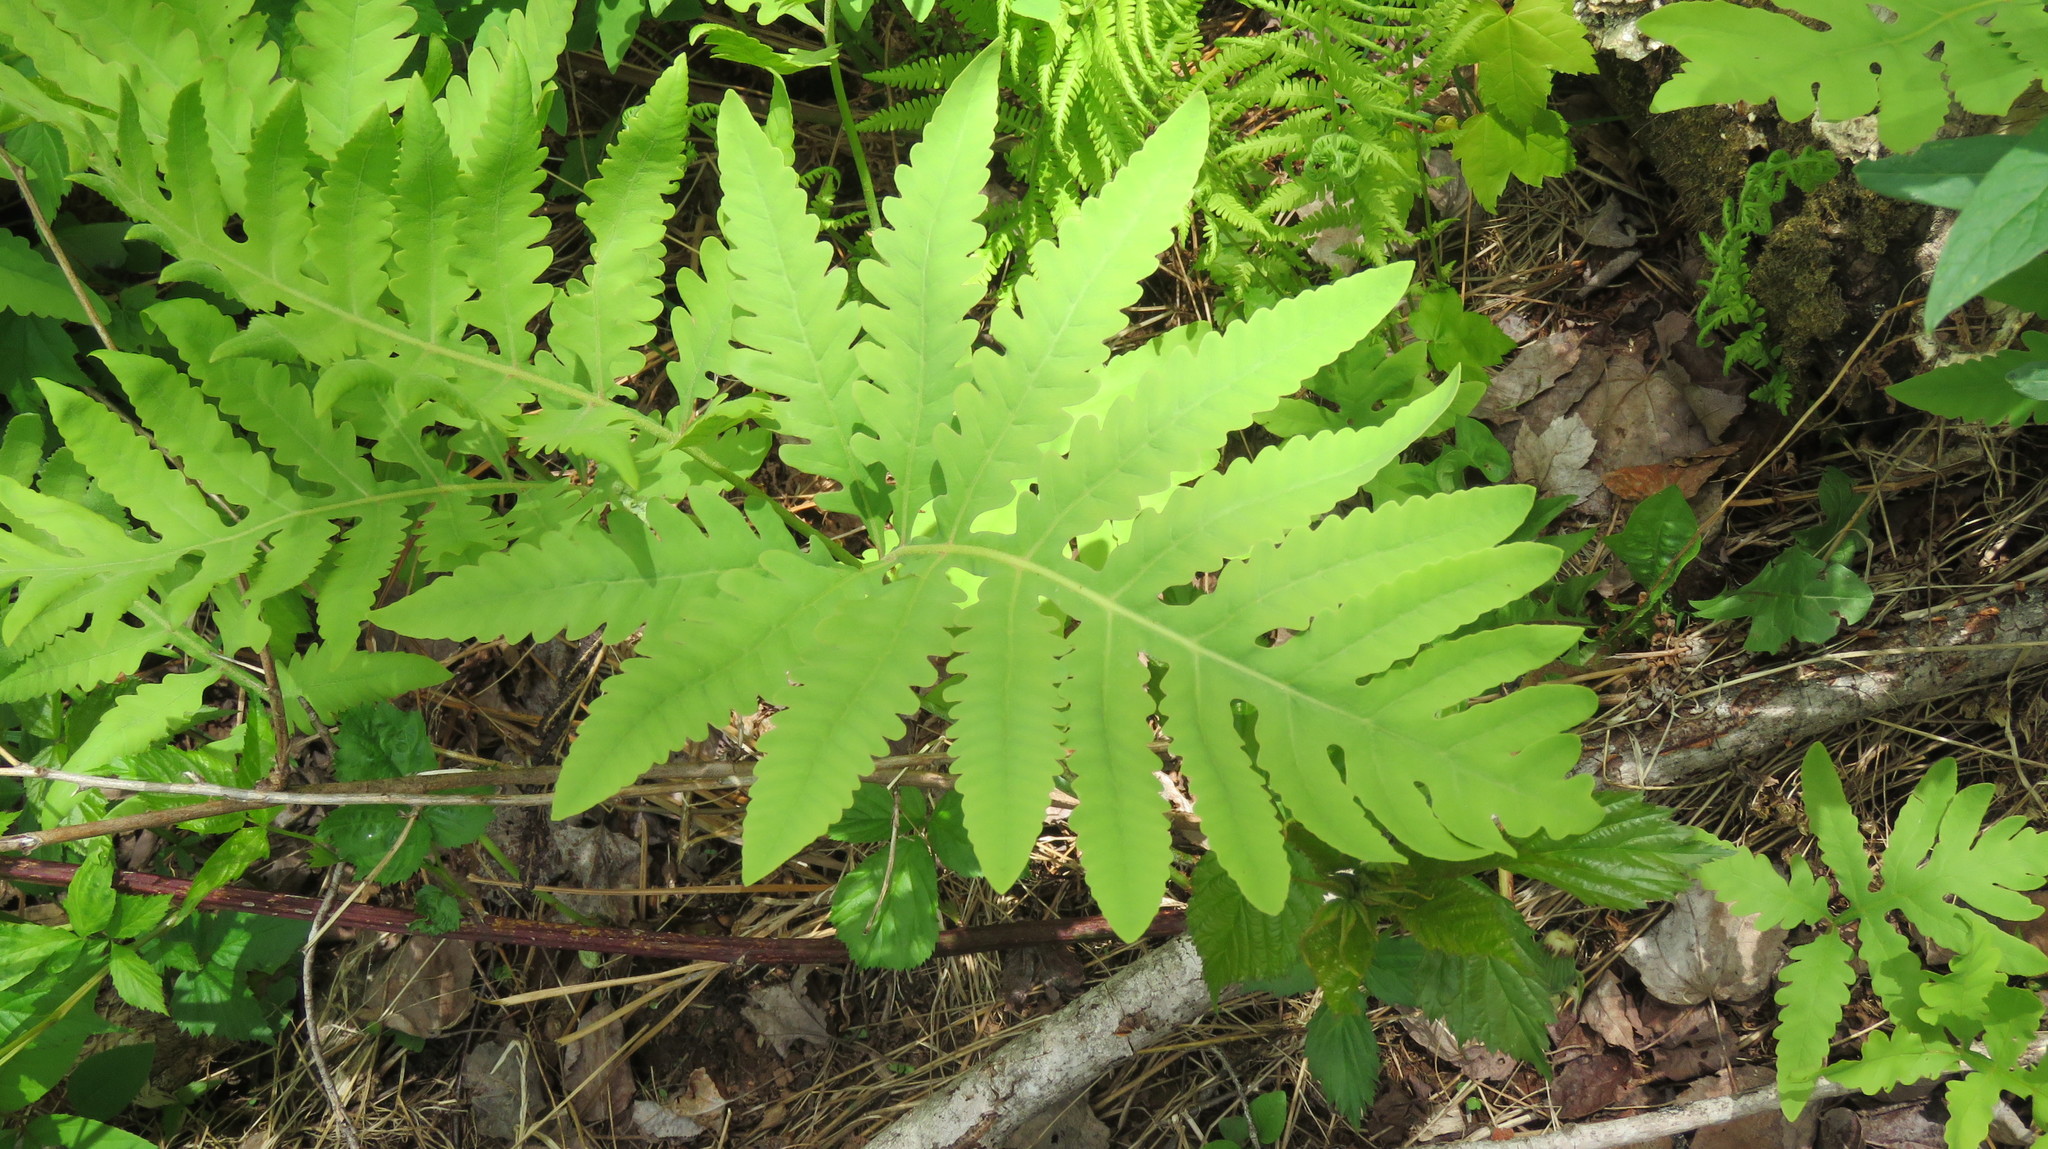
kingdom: Plantae
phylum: Tracheophyta
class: Polypodiopsida
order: Polypodiales
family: Onocleaceae
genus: Onoclea
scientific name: Onoclea sensibilis
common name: Sensitive fern
